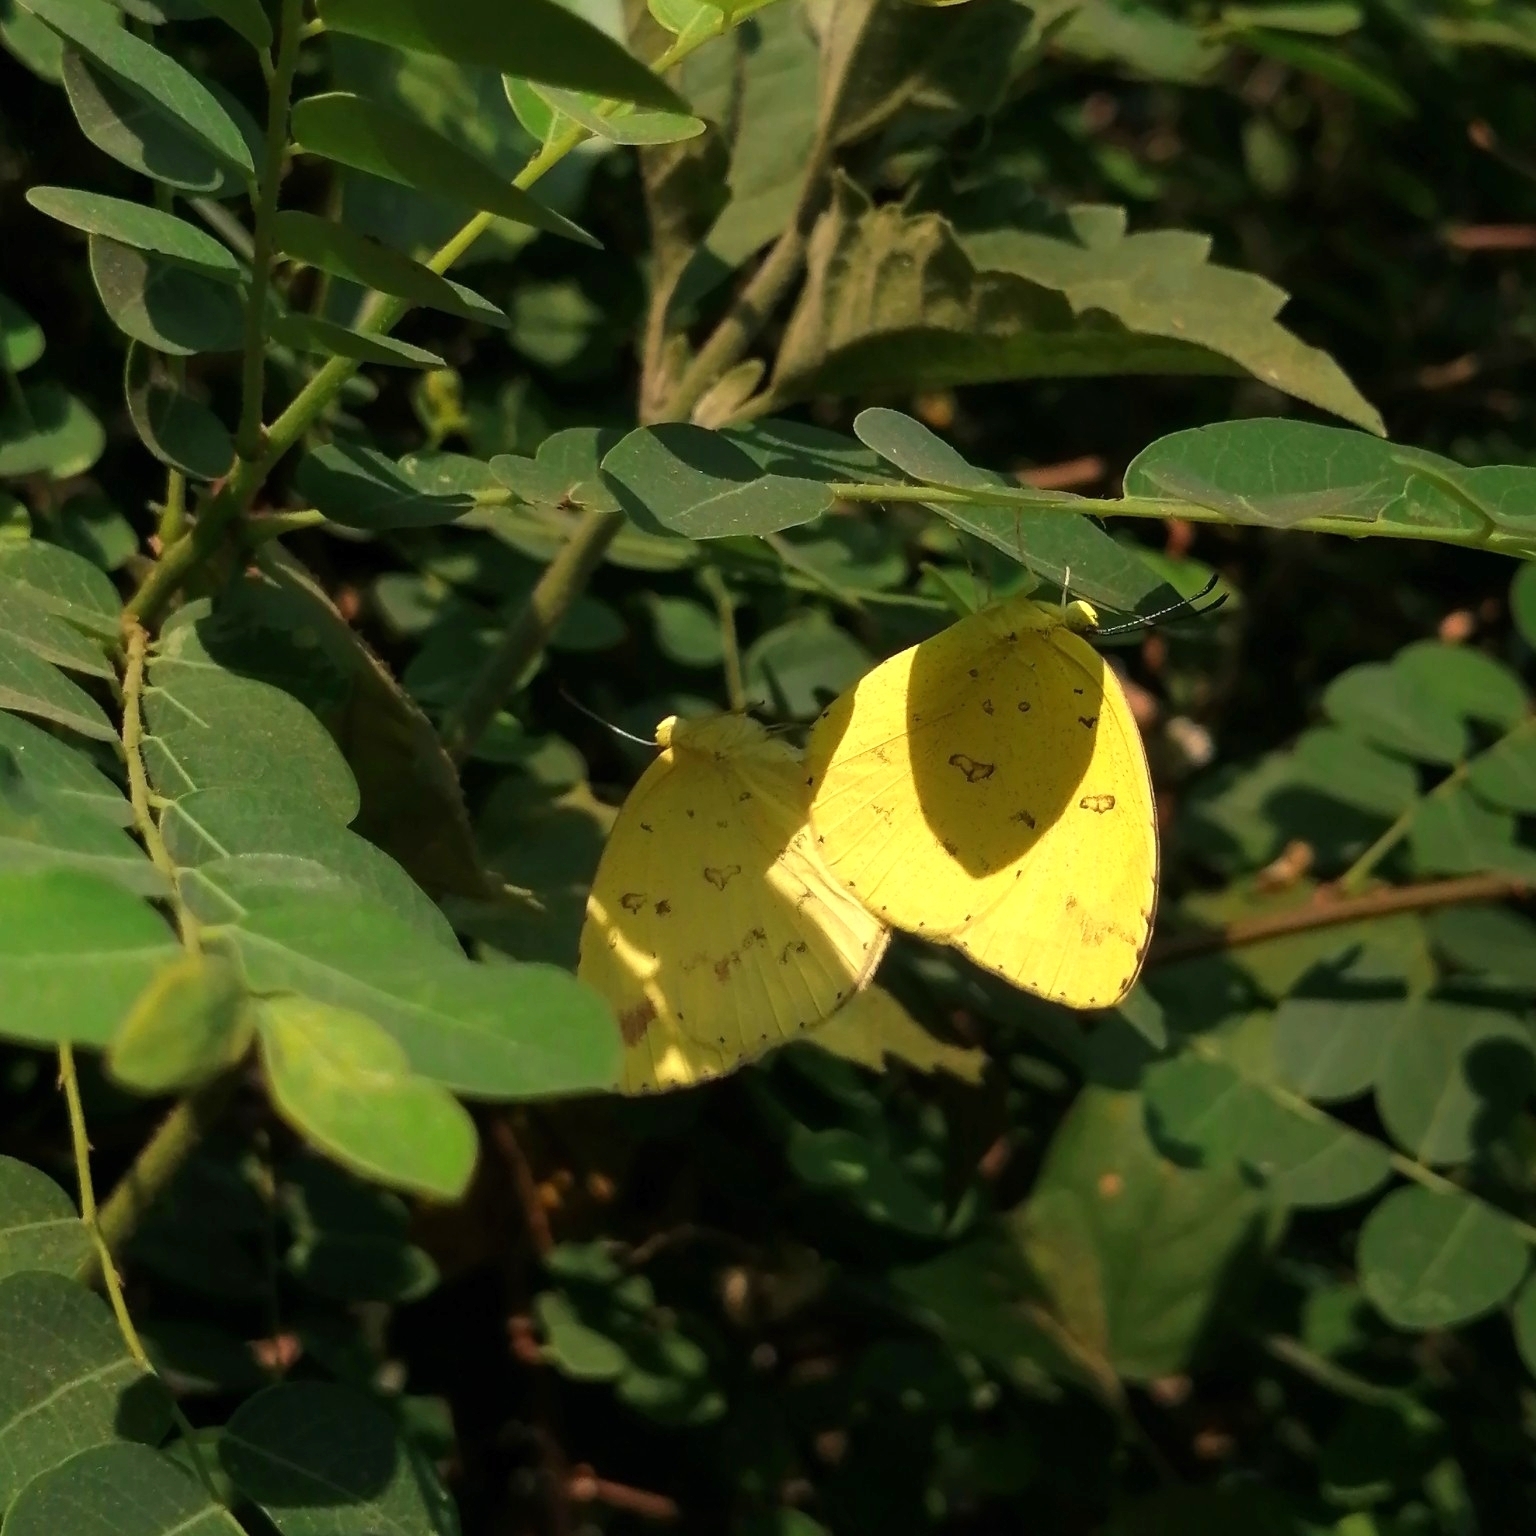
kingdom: Animalia
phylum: Arthropoda
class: Insecta
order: Lepidoptera
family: Pieridae
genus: Eurema
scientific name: Eurema hecabe
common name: Pale grass yellow
